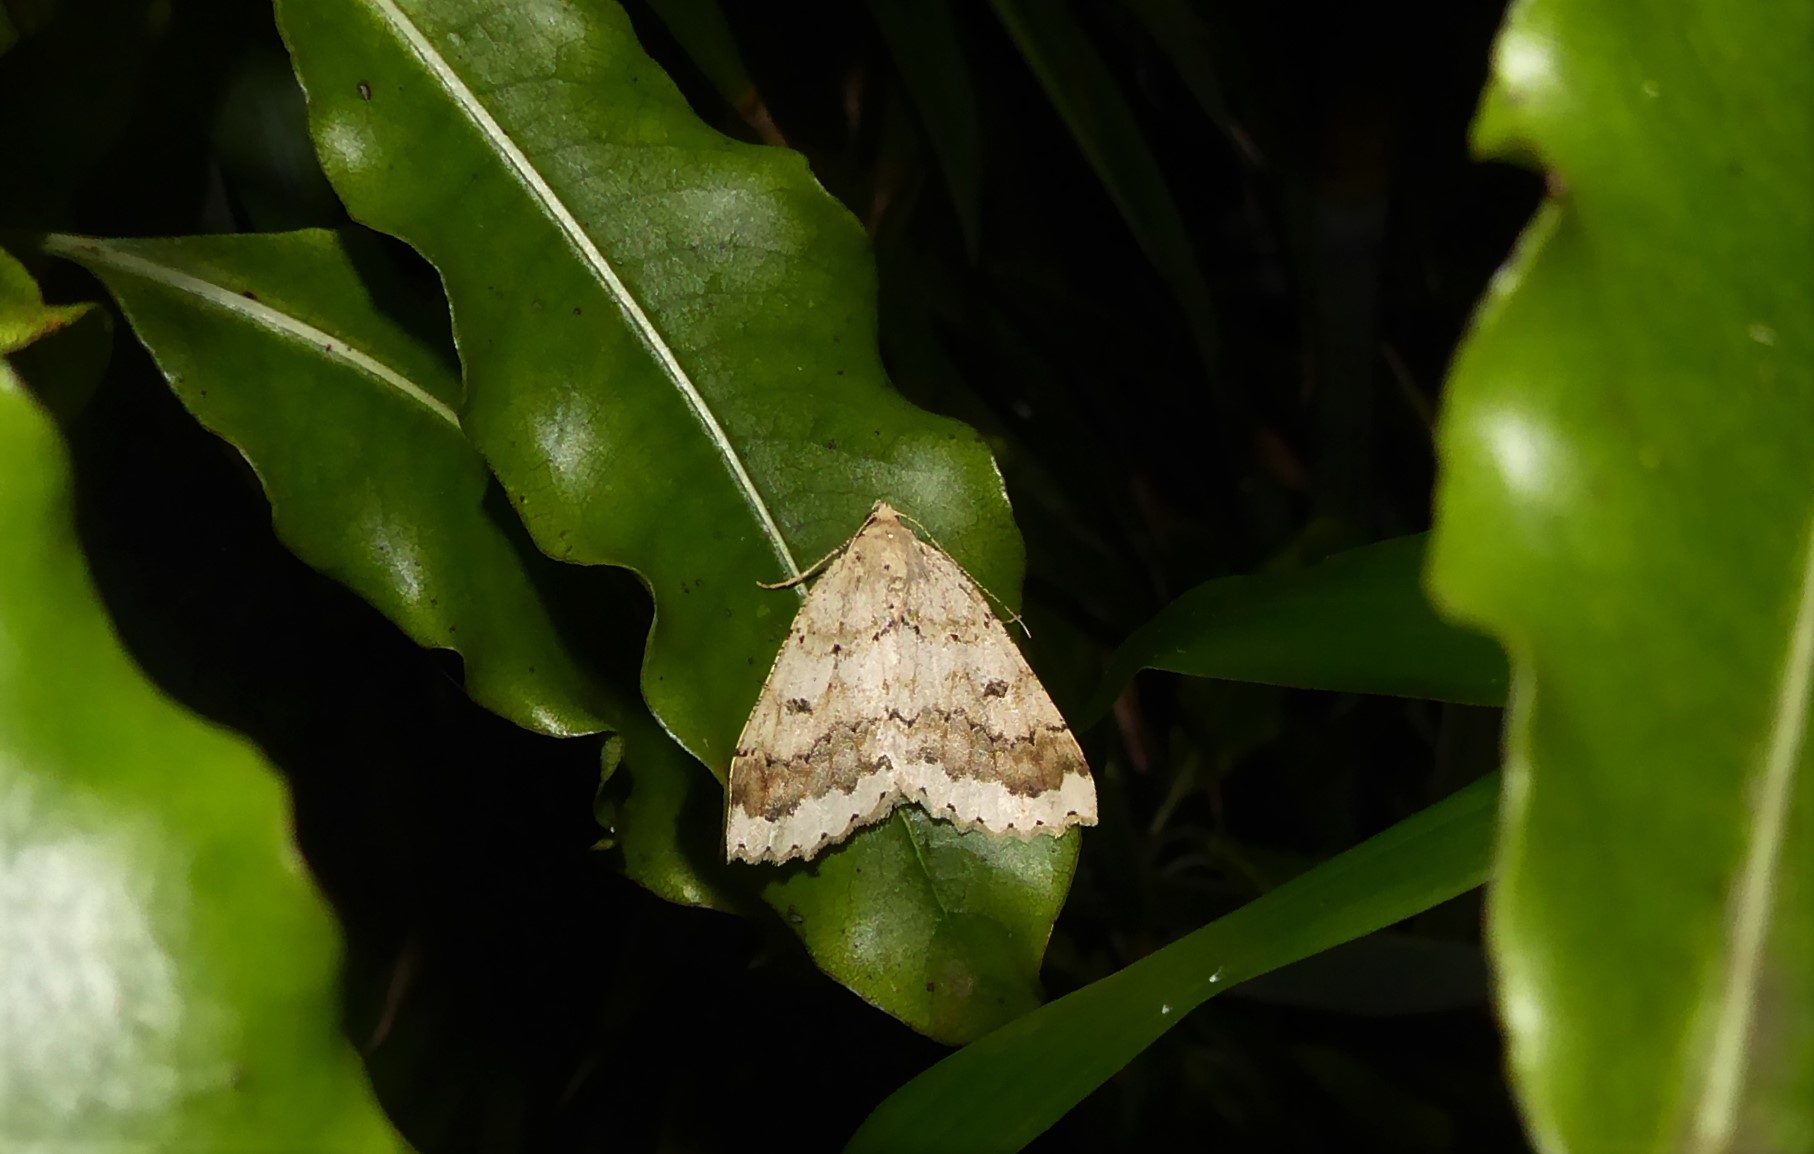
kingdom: Animalia
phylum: Arthropoda
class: Insecta
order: Lepidoptera
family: Geometridae
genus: Cleora
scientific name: Cleora scriptaria
